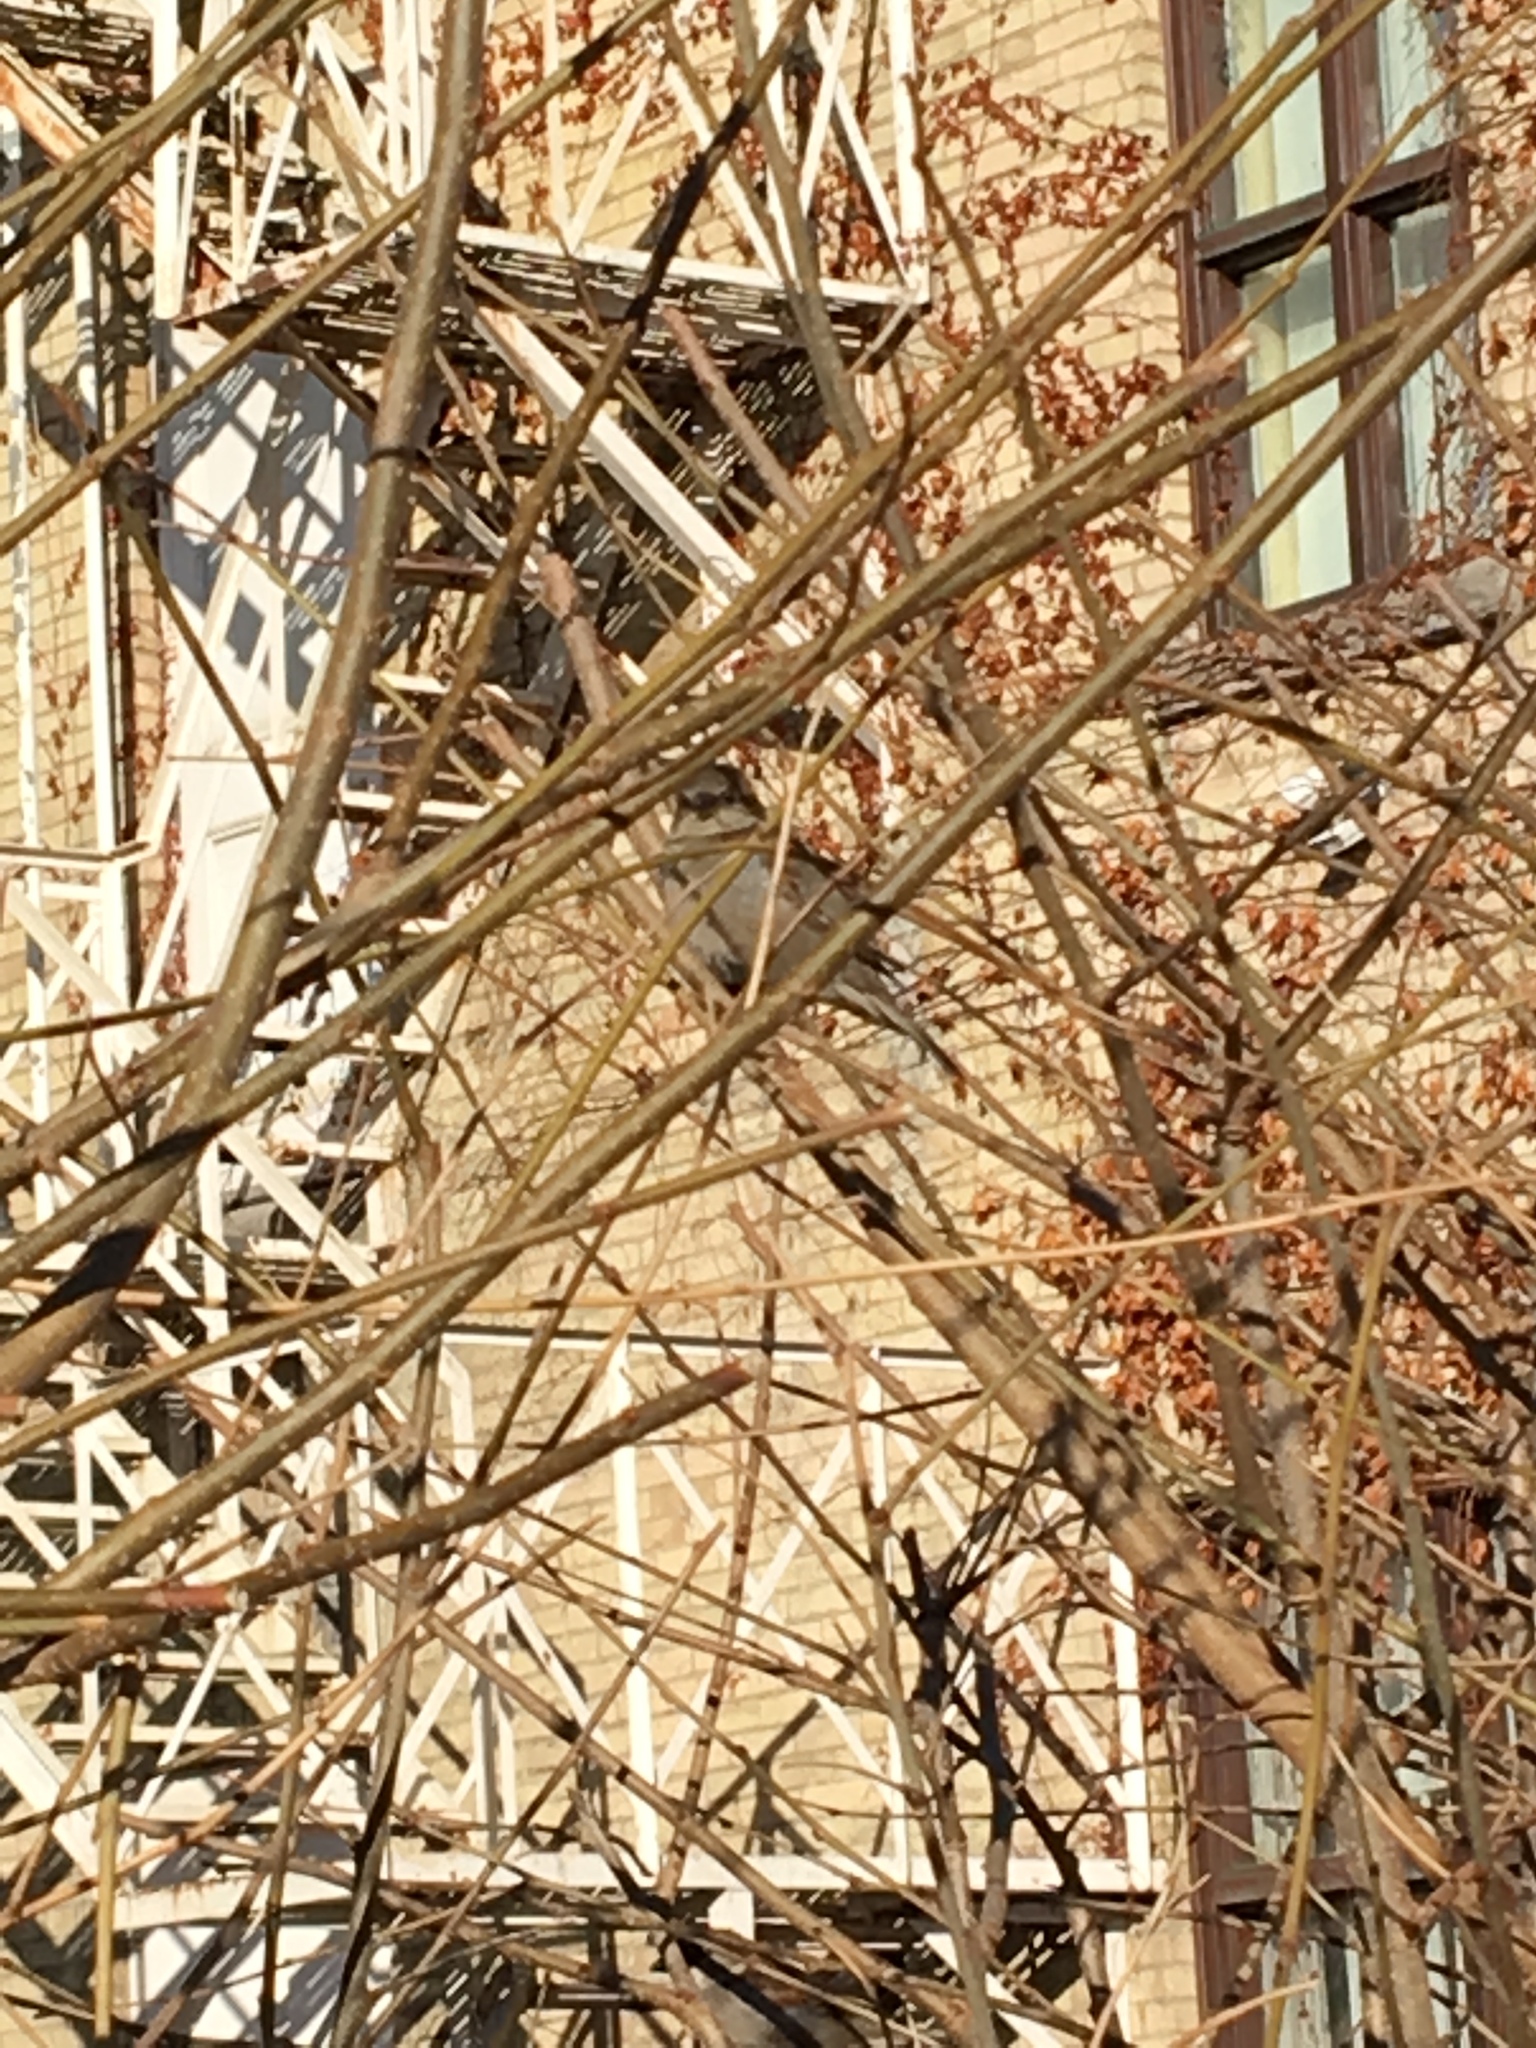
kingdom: Animalia
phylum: Chordata
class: Aves
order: Passeriformes
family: Passeridae
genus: Passer
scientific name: Passer domesticus
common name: House sparrow
